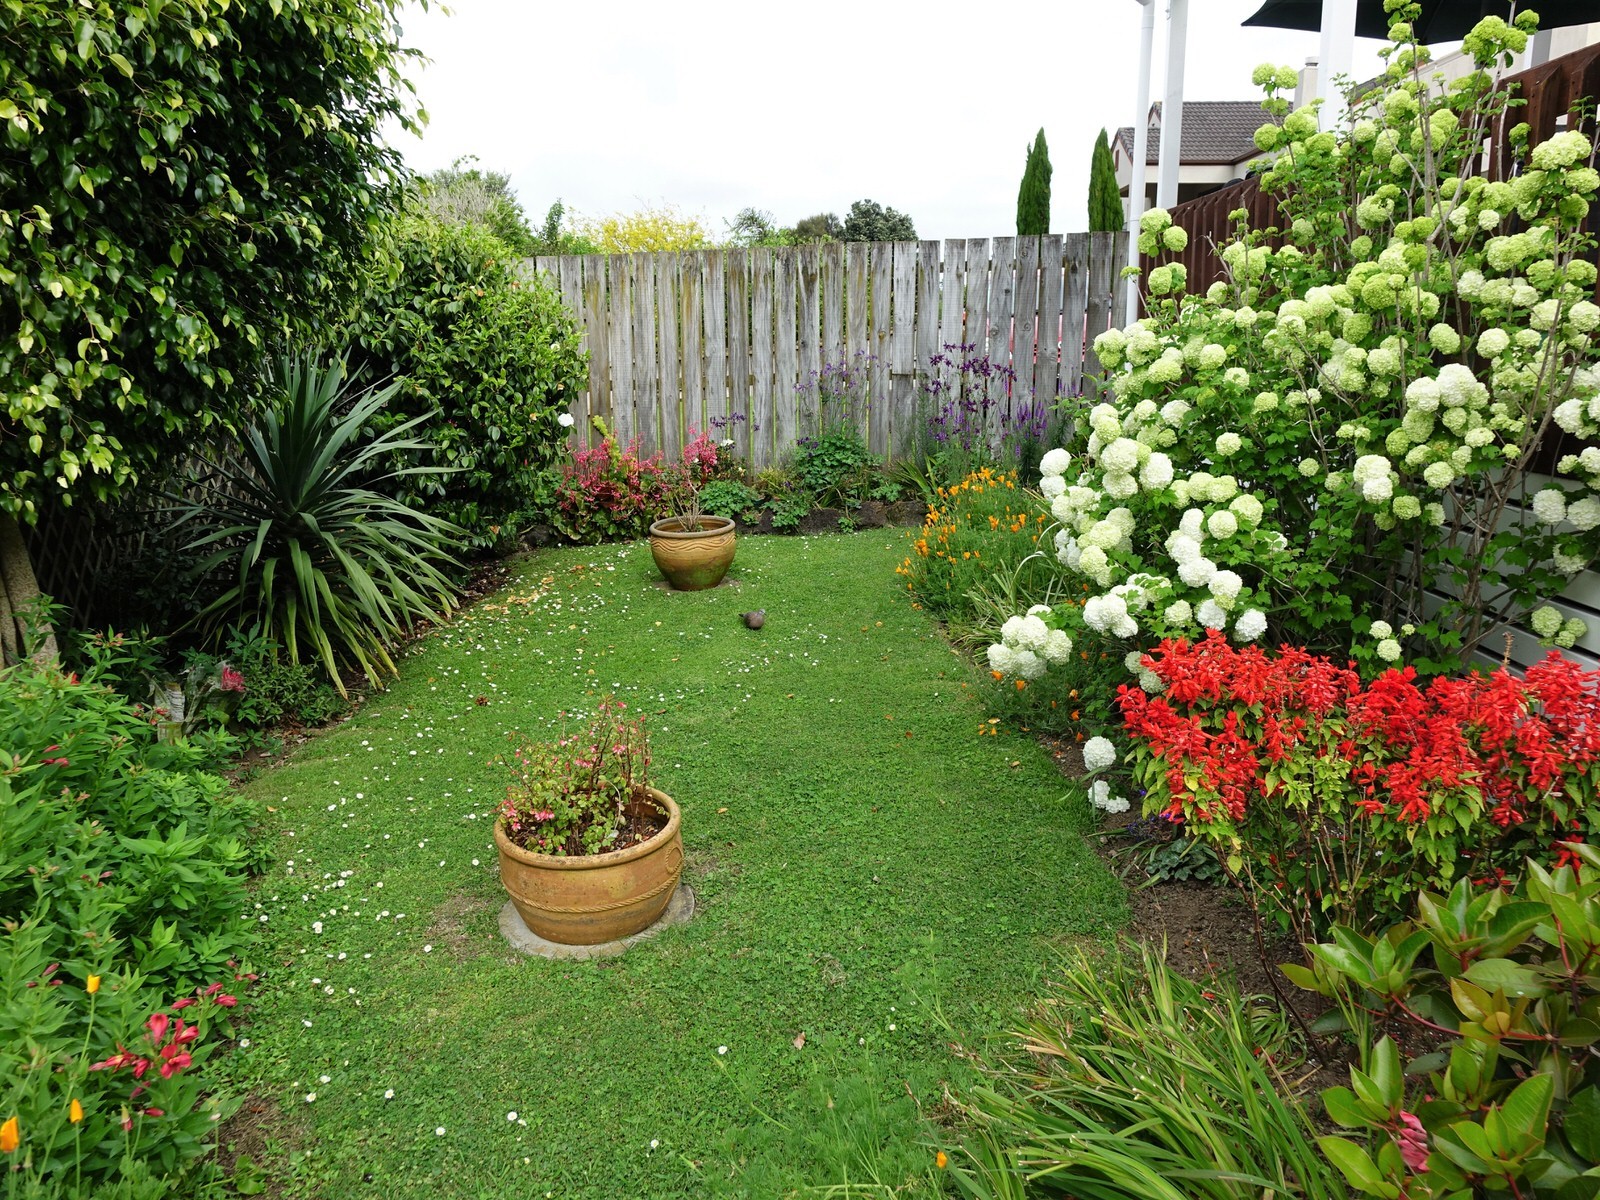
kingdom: Animalia
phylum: Chordata
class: Aves
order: Columbiformes
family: Columbidae
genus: Spilopelia
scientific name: Spilopelia chinensis
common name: Spotted dove
